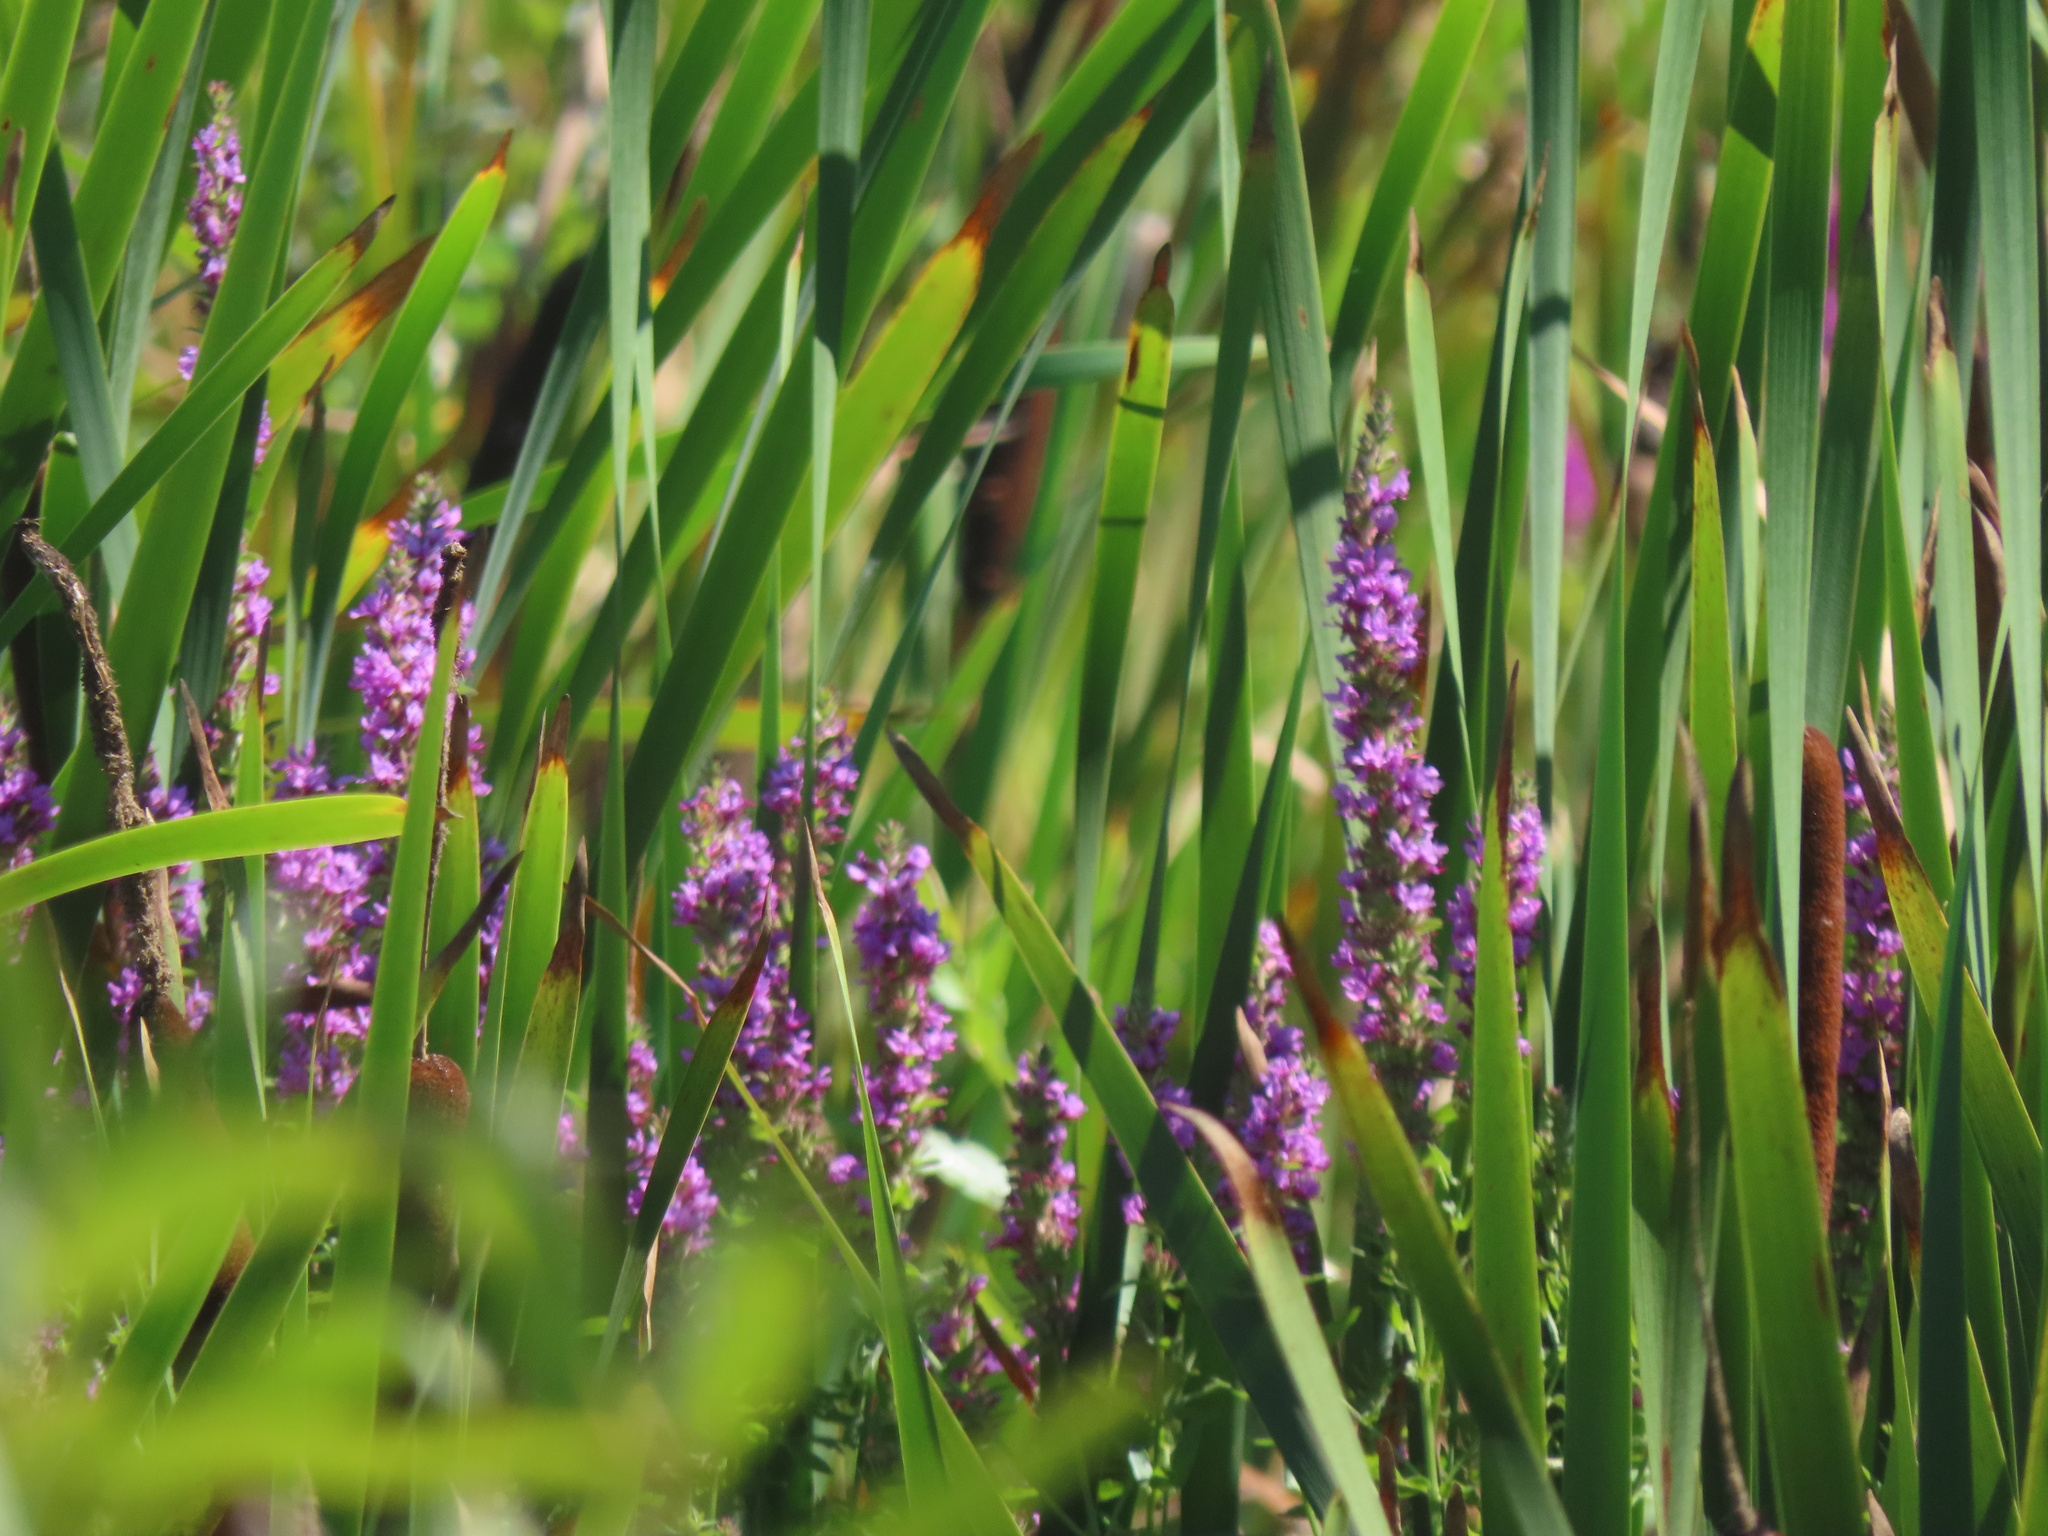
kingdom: Plantae
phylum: Tracheophyta
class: Magnoliopsida
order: Myrtales
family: Lythraceae
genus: Lythrum
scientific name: Lythrum salicaria
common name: Purple loosestrife
